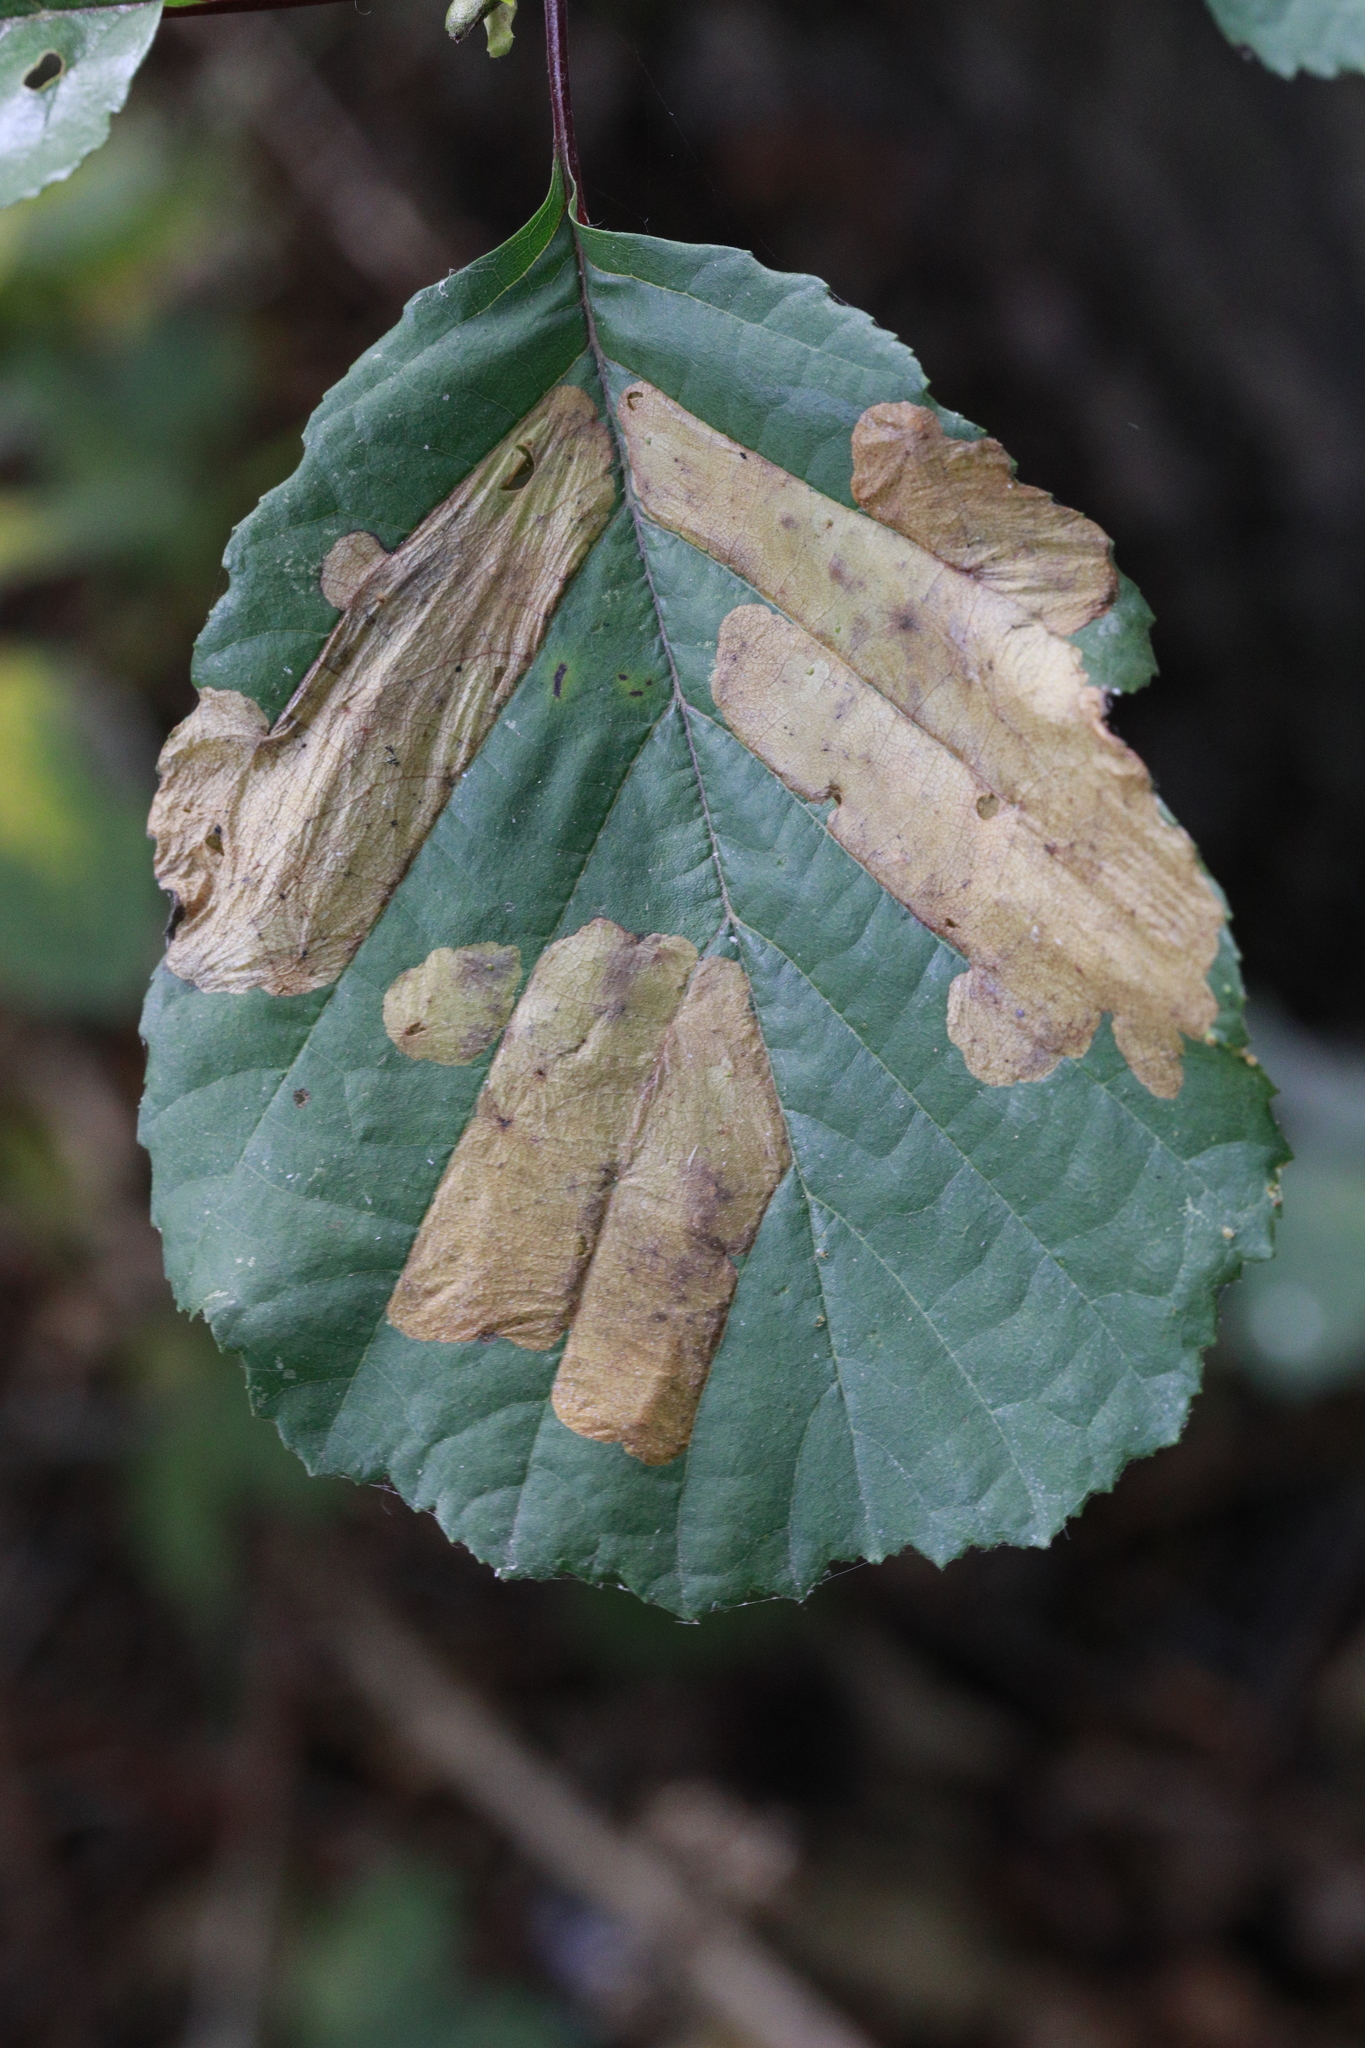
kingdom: Animalia
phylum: Arthropoda
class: Insecta
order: Hymenoptera
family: Tenthredinidae
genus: Fenusa
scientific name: Fenusa dohrnii
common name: European alder leafminer
